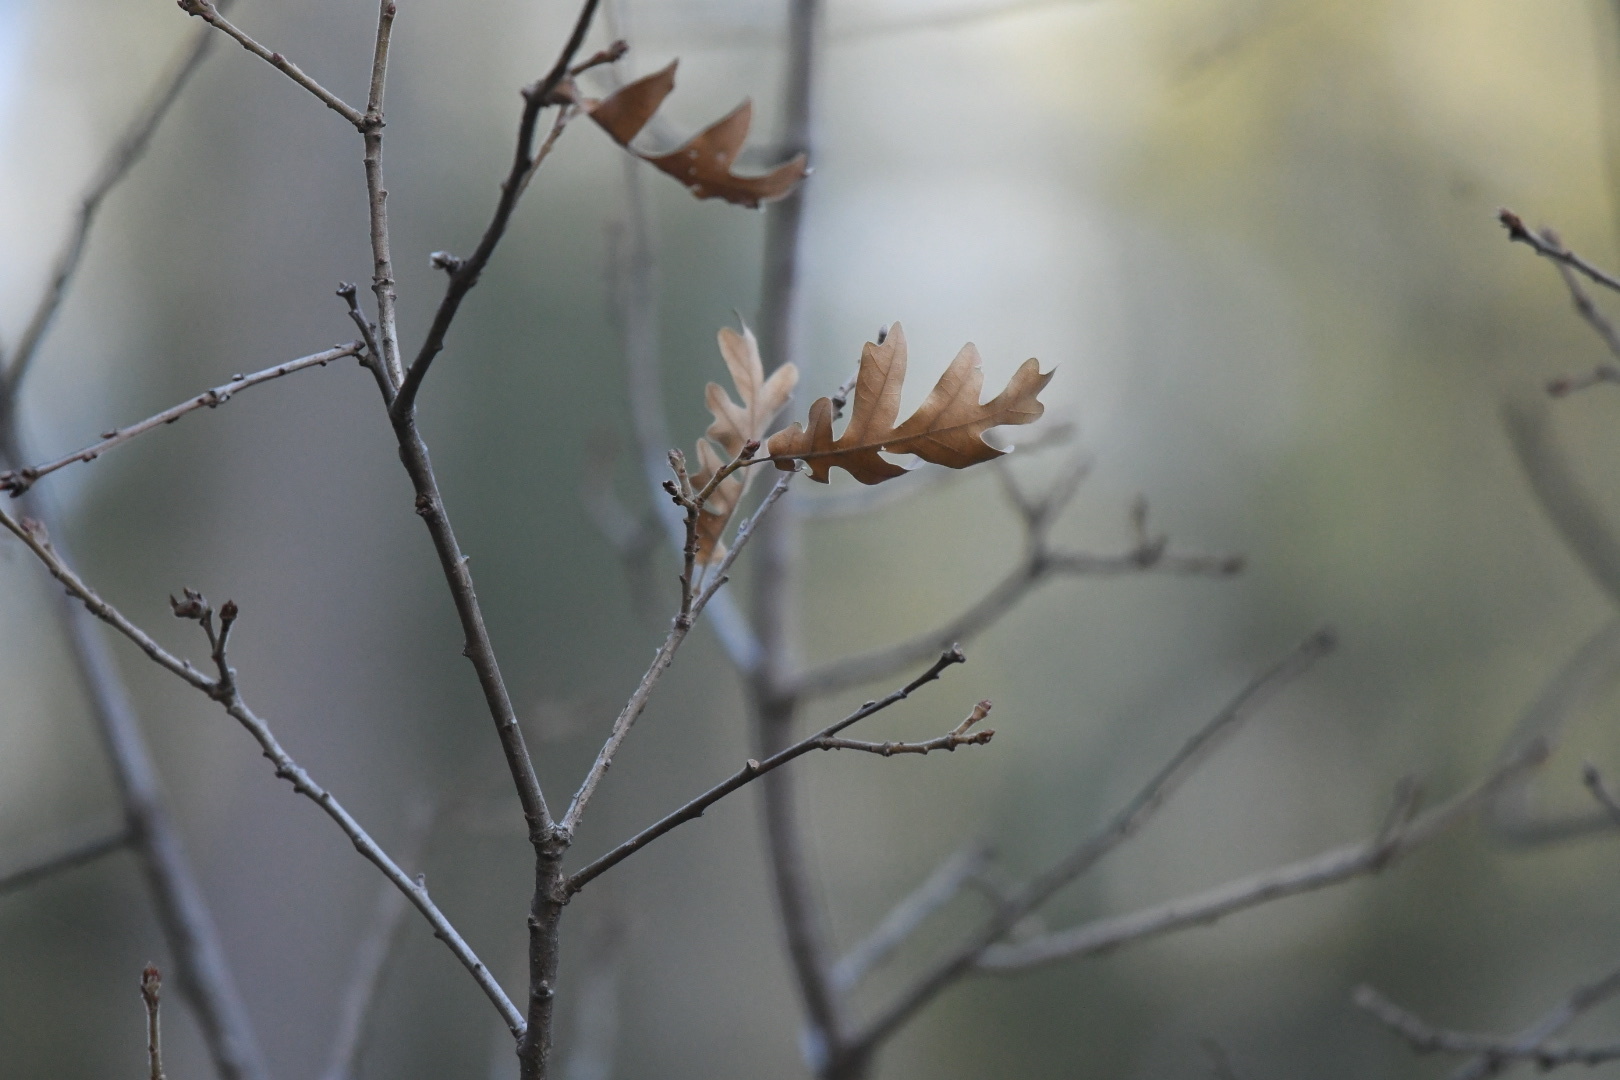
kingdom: Plantae
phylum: Tracheophyta
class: Magnoliopsida
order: Fagales
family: Fagaceae
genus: Quercus
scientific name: Quercus gambelii
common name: Gambel oak
